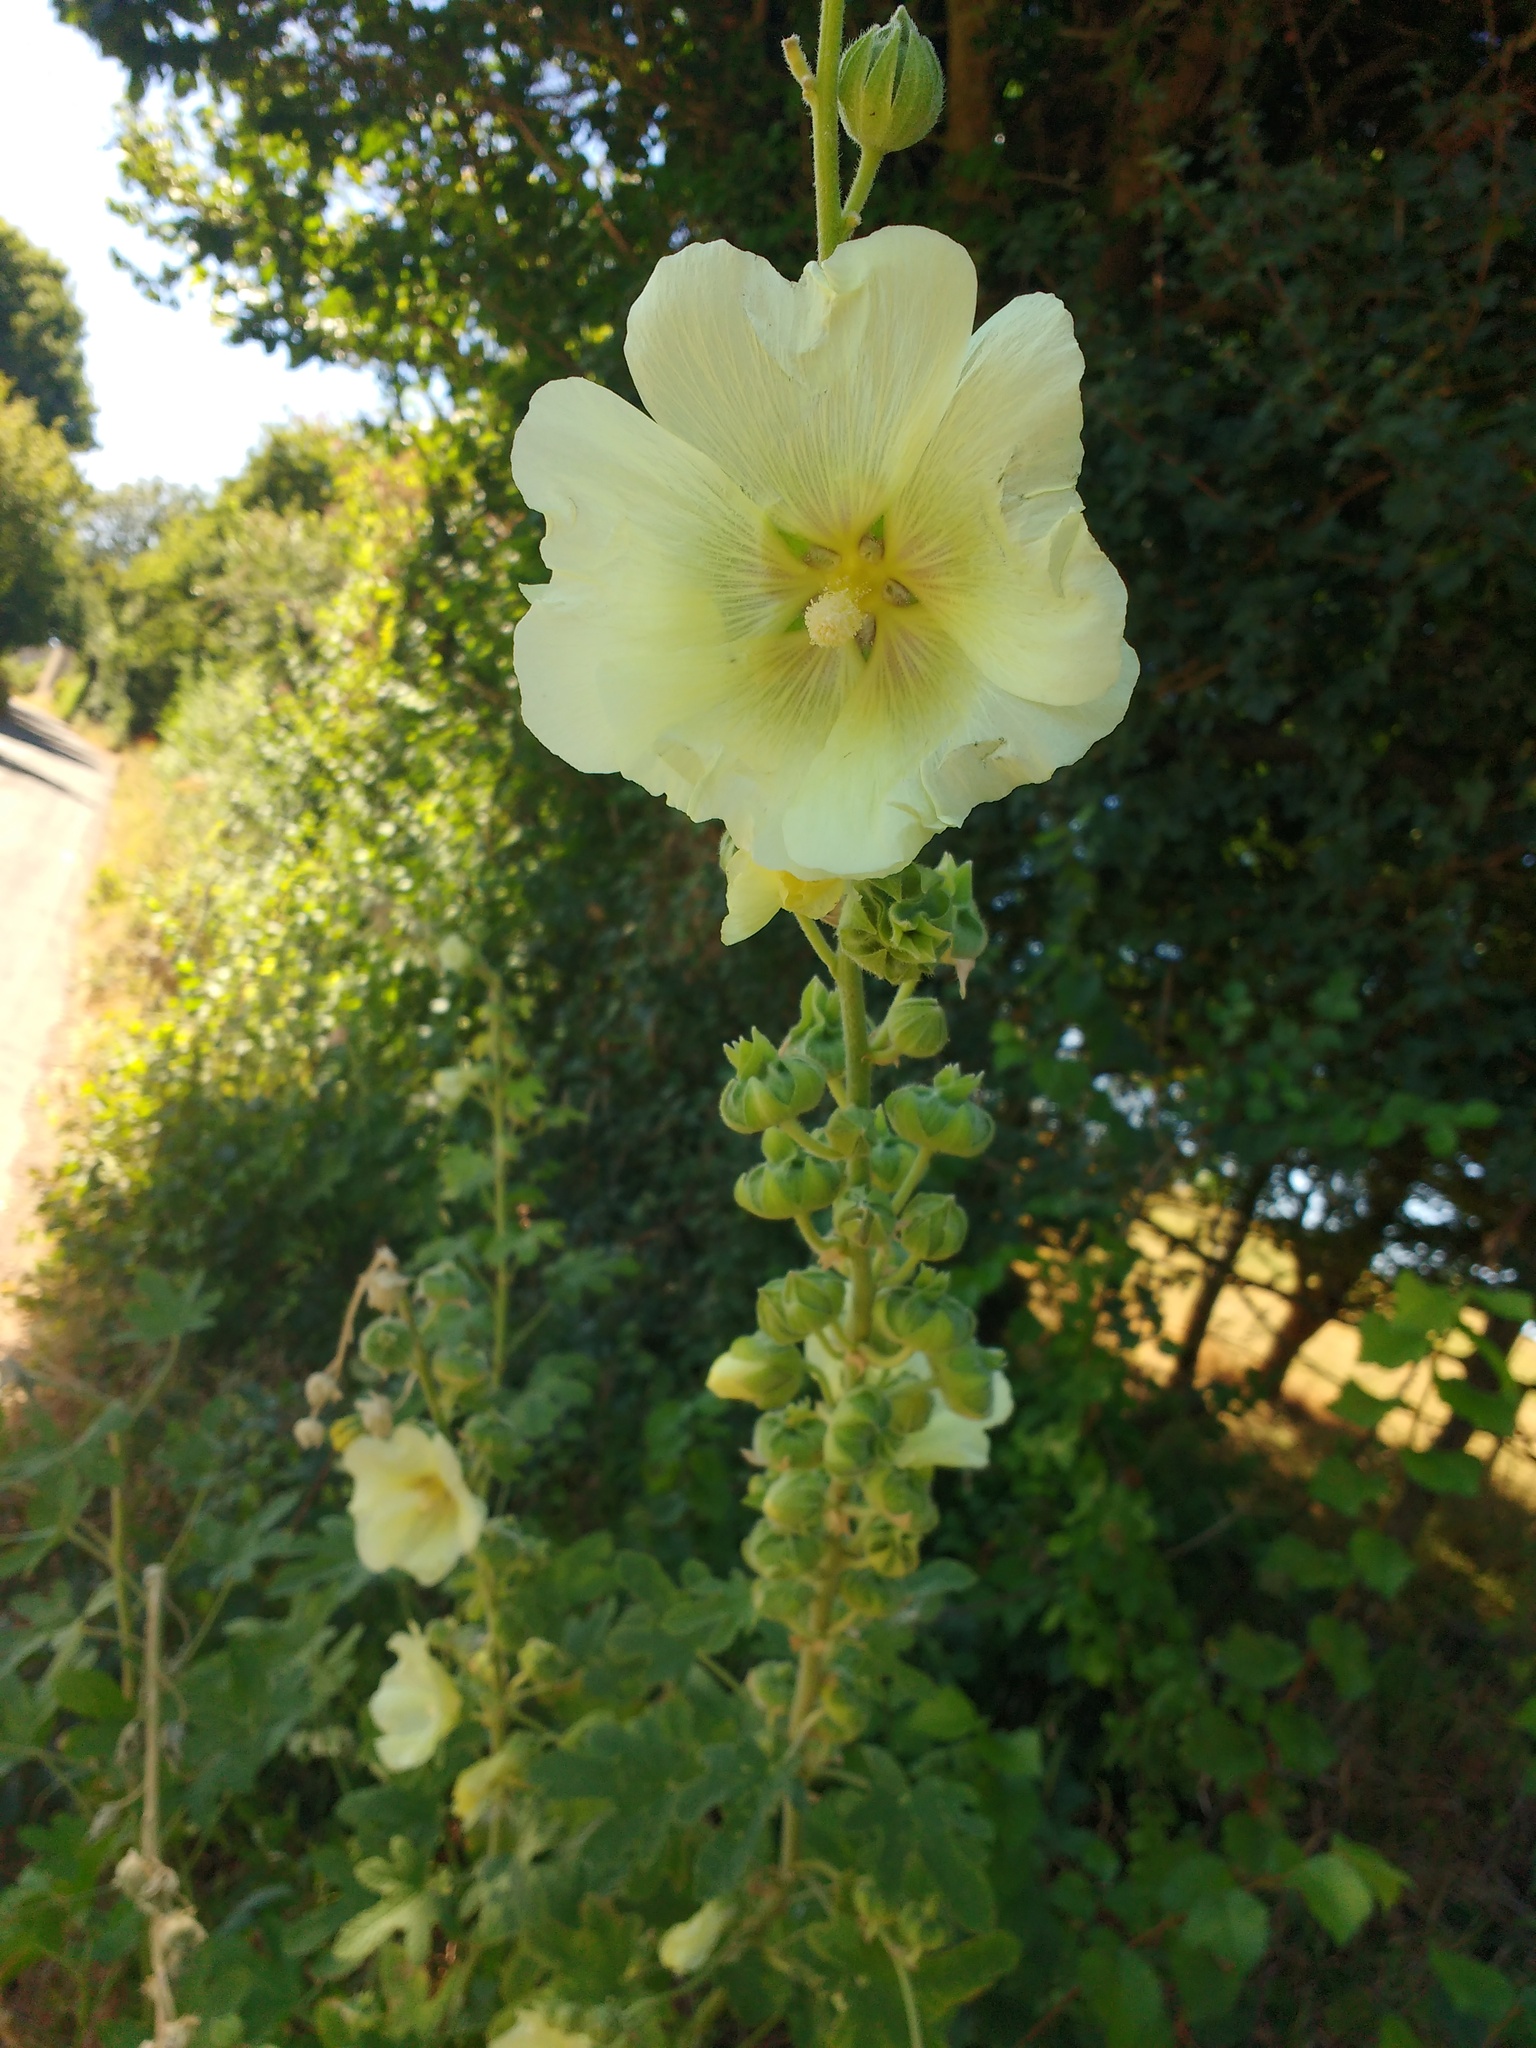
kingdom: Plantae
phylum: Tracheophyta
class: Magnoliopsida
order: Malvales
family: Malvaceae
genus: Alcea
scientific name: Alcea rosea
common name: Hollyhock
